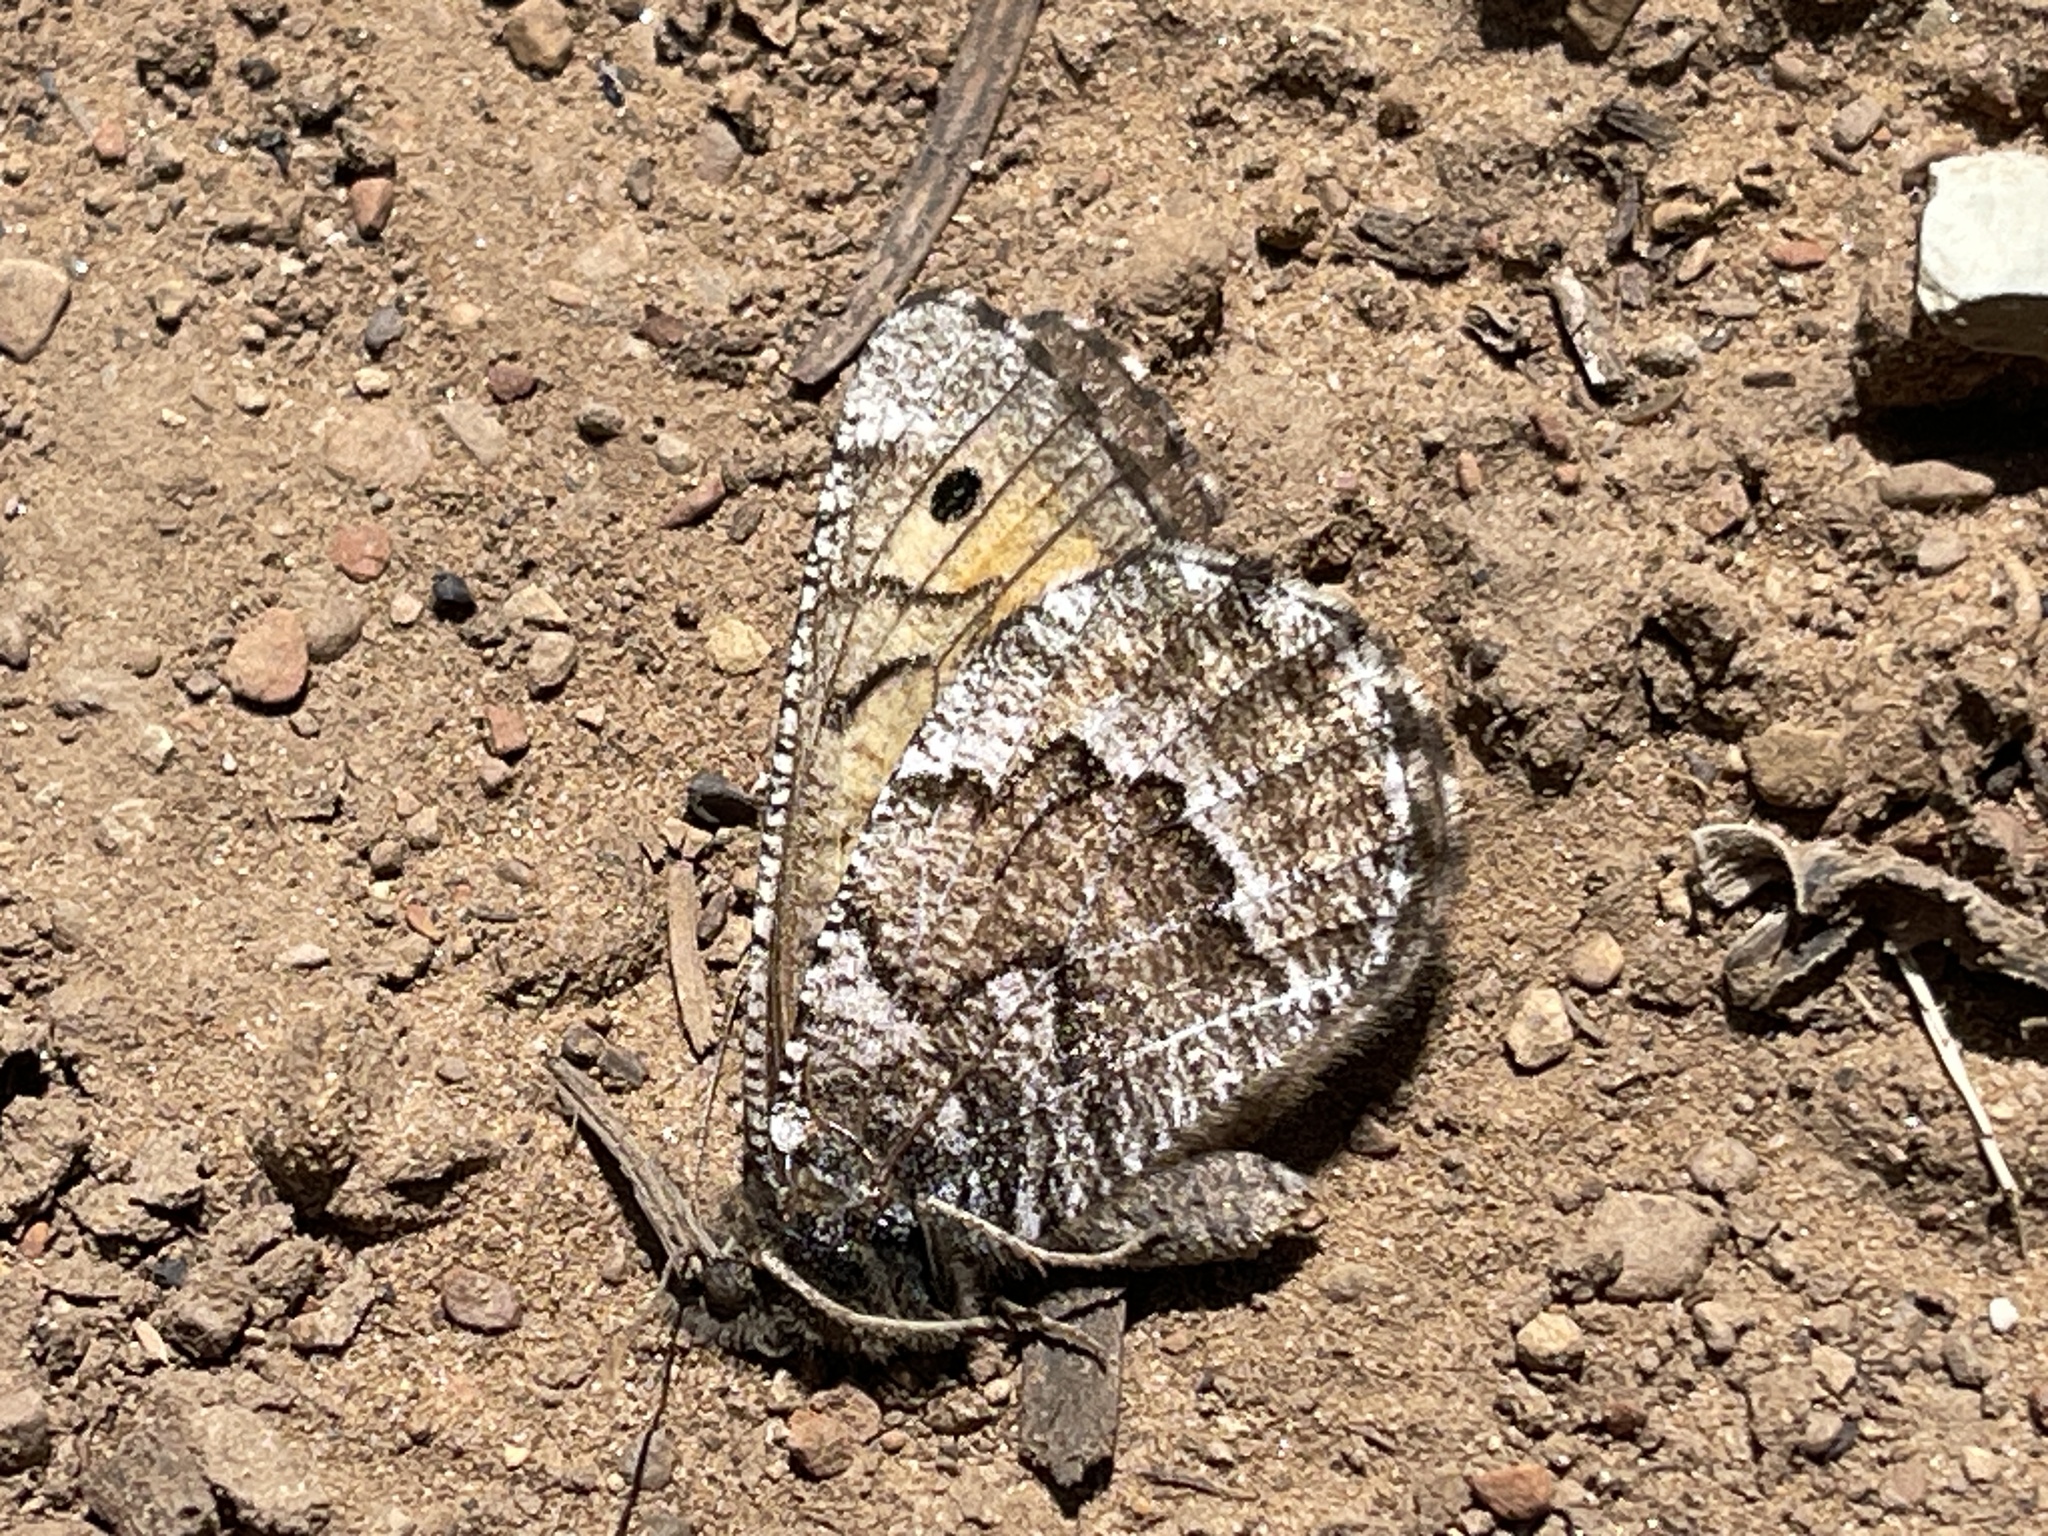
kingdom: Animalia
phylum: Arthropoda
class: Insecta
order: Lepidoptera
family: Nymphalidae
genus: Oeneis
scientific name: Oeneis chryxus
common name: Chryxus arctic
